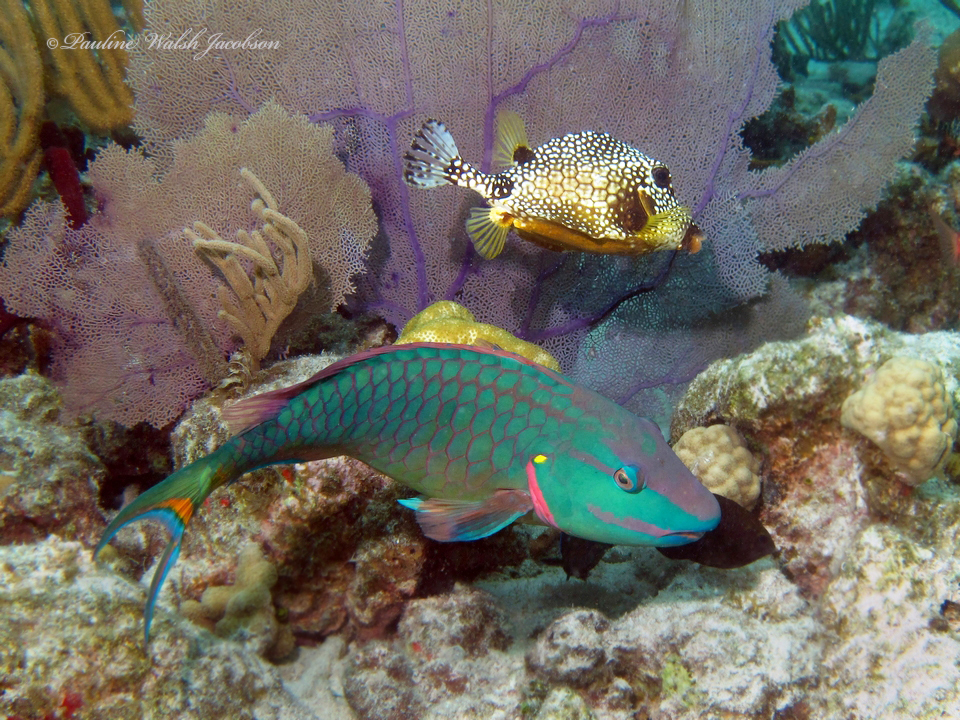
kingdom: Animalia
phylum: Chordata
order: Tetraodontiformes
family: Ostraciidae
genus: Lactophrys
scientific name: Lactophrys triqueter
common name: Smooth trunkfish
